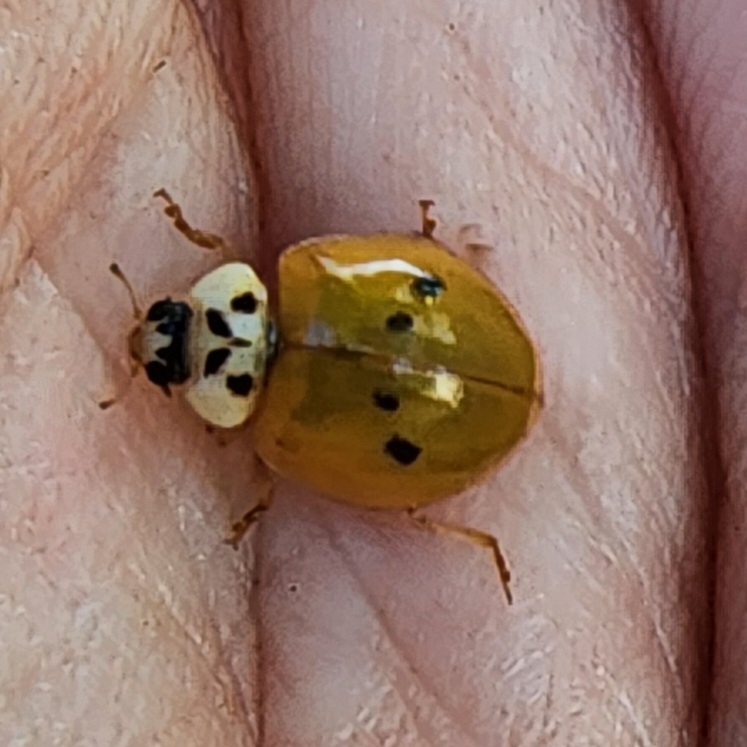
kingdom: Animalia
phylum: Arthropoda
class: Insecta
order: Coleoptera
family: Coccinellidae
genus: Harmonia
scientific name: Harmonia axyridis
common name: Harlequin ladybird
